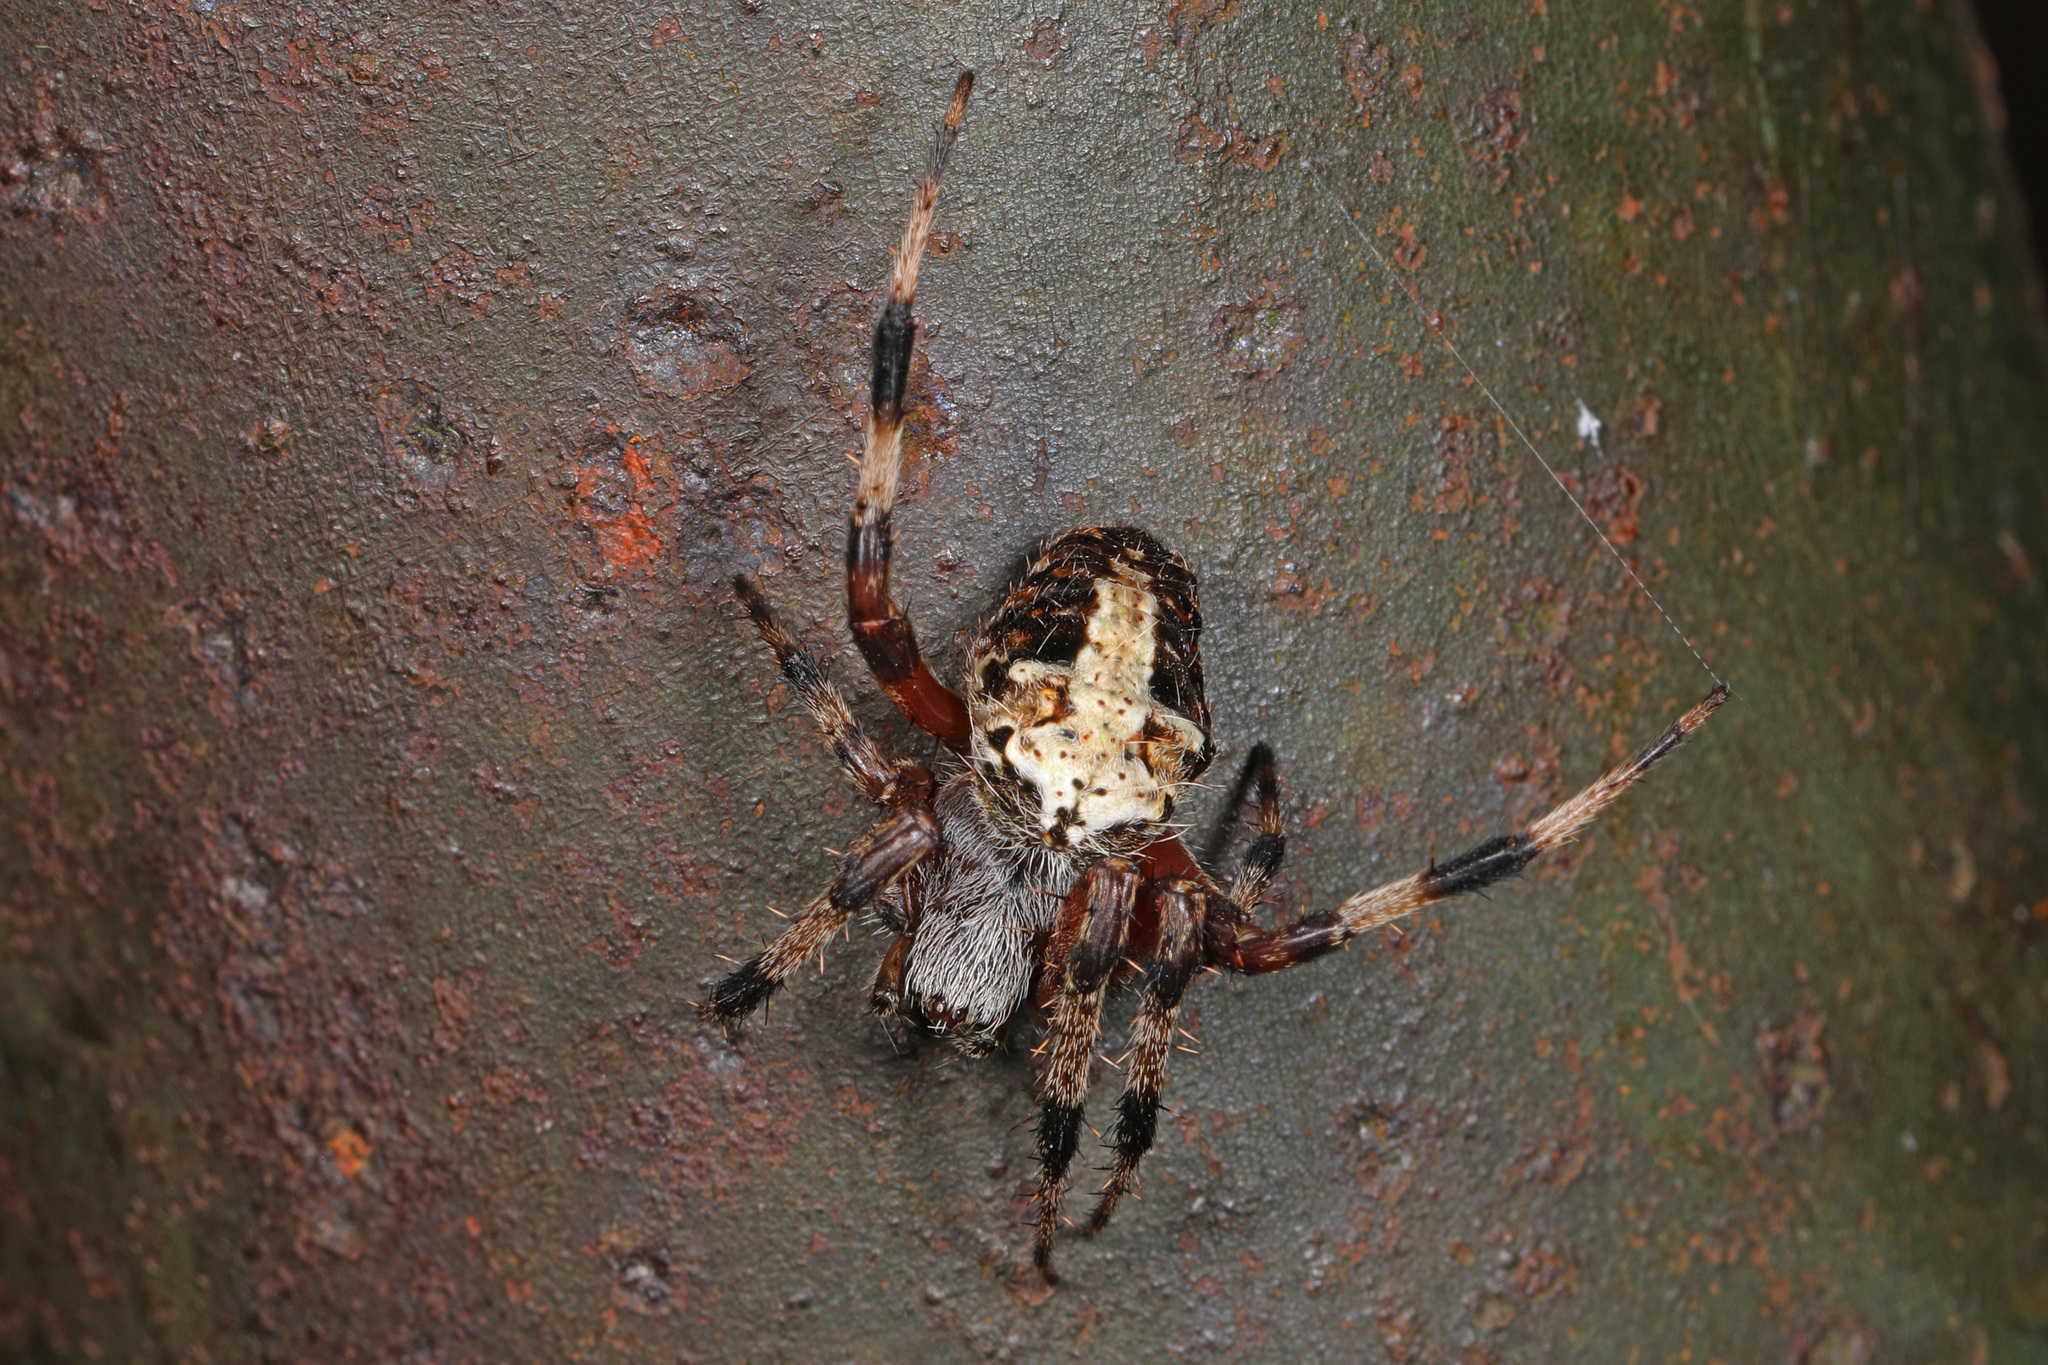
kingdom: Animalia
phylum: Arthropoda
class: Arachnida
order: Araneae
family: Araneidae
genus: Neoscona
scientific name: Neoscona domiciliorum
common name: Red-femured spotted orbweaver
